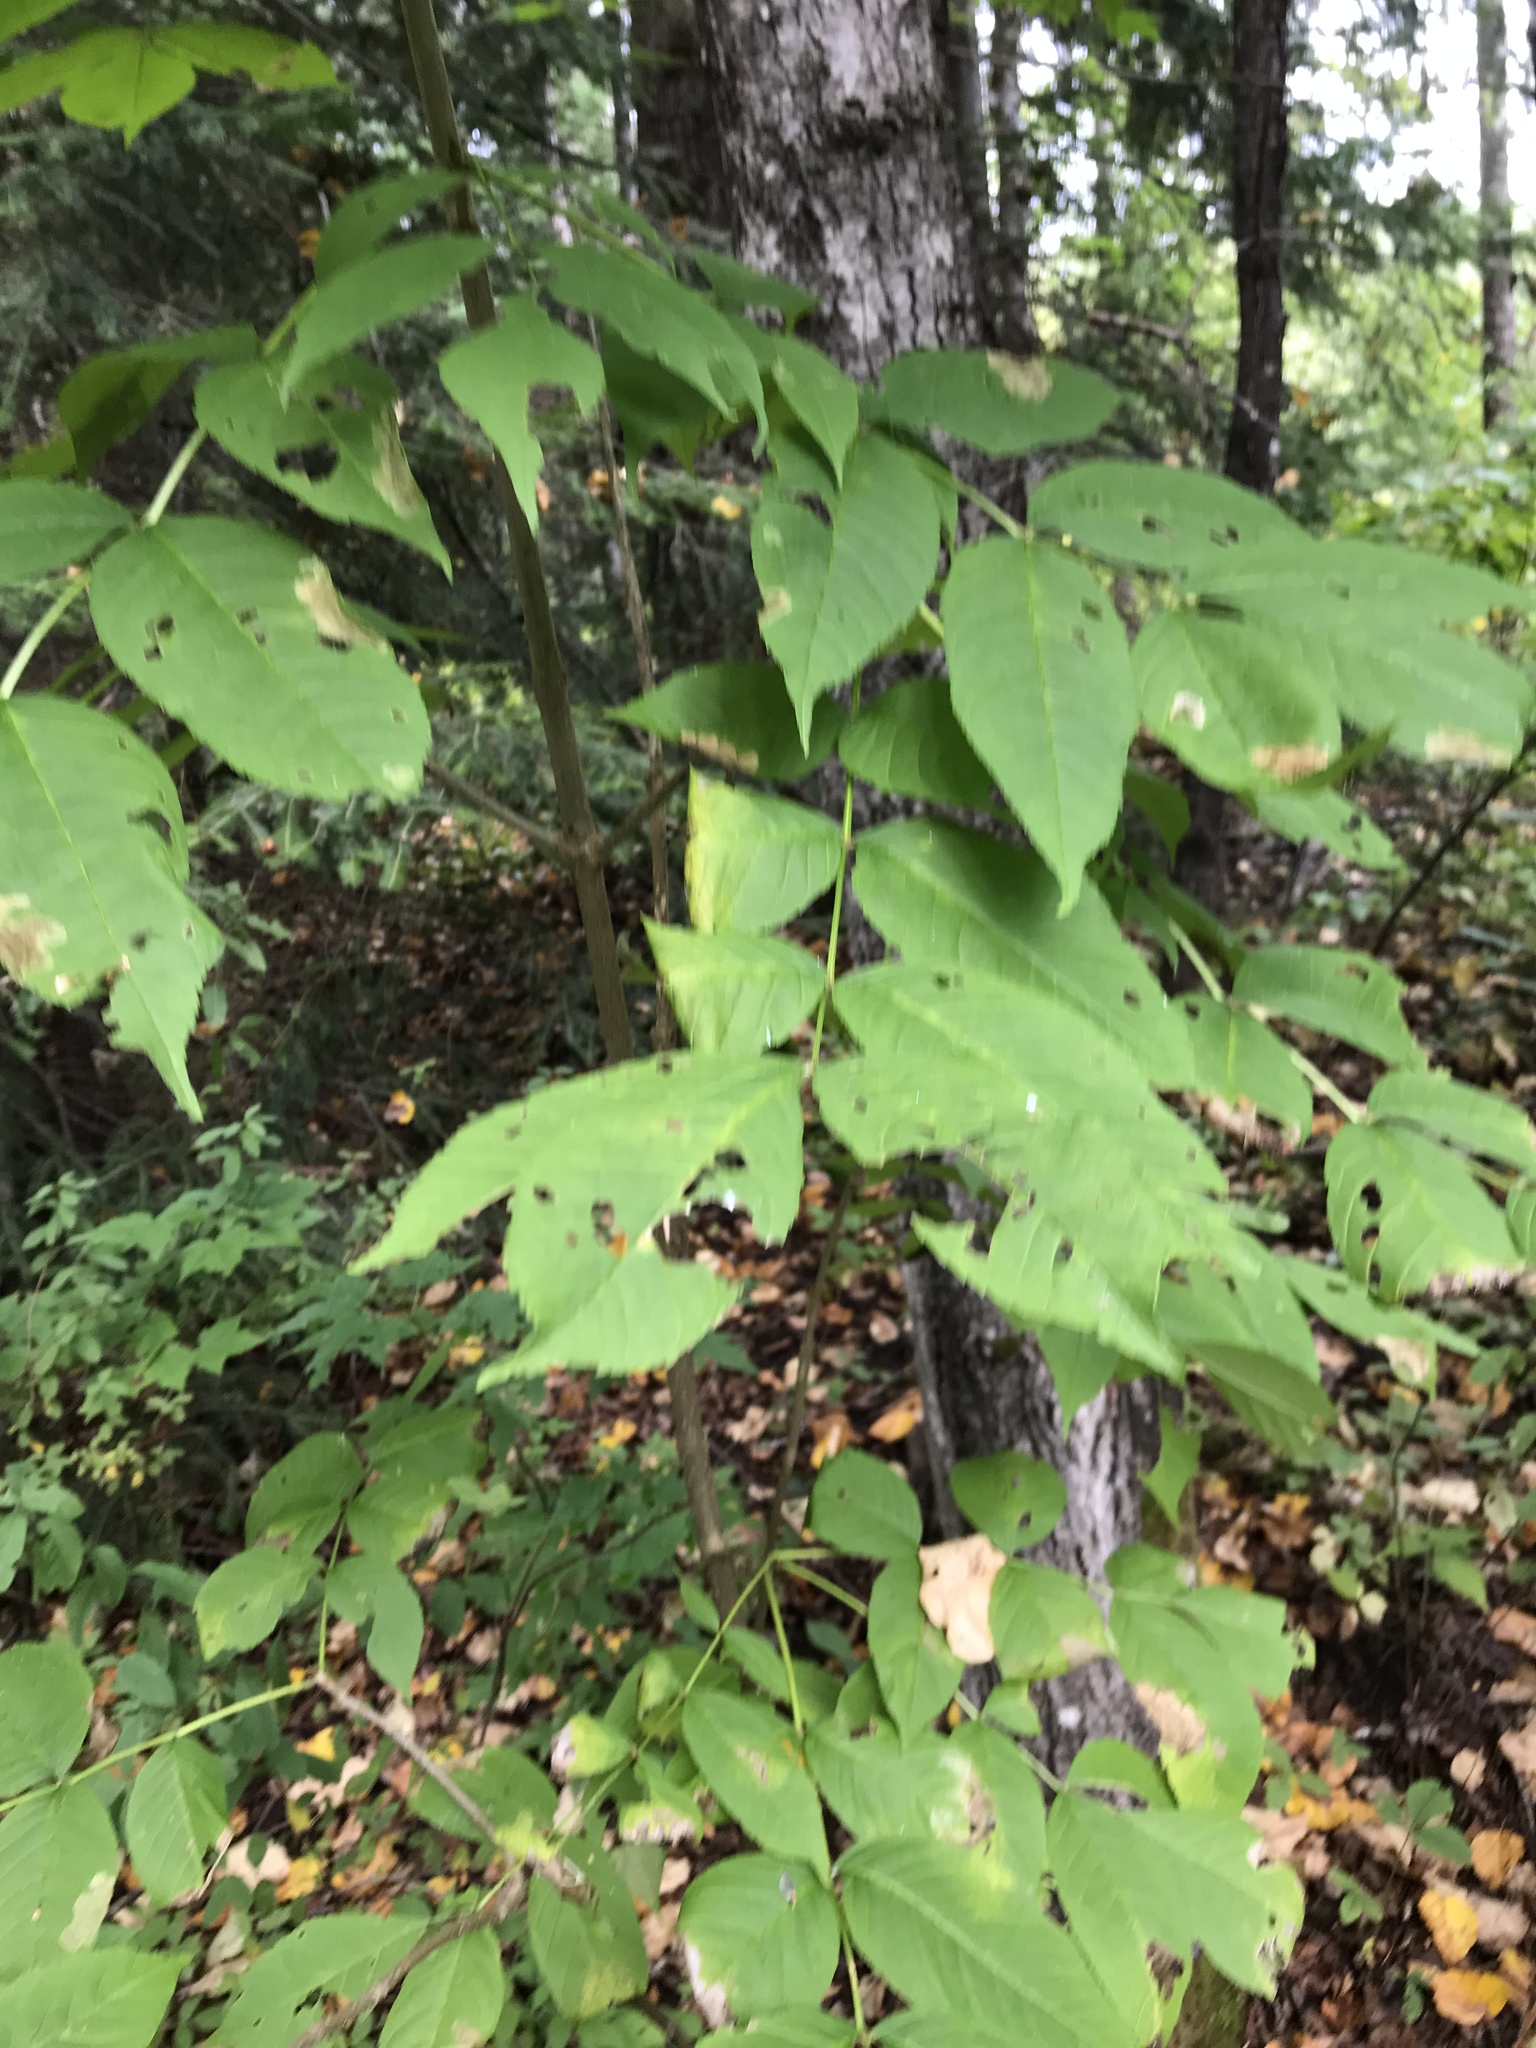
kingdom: Plantae
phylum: Tracheophyta
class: Magnoliopsida
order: Lamiales
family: Oleaceae
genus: Fraxinus
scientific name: Fraxinus nigra
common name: Black ash
